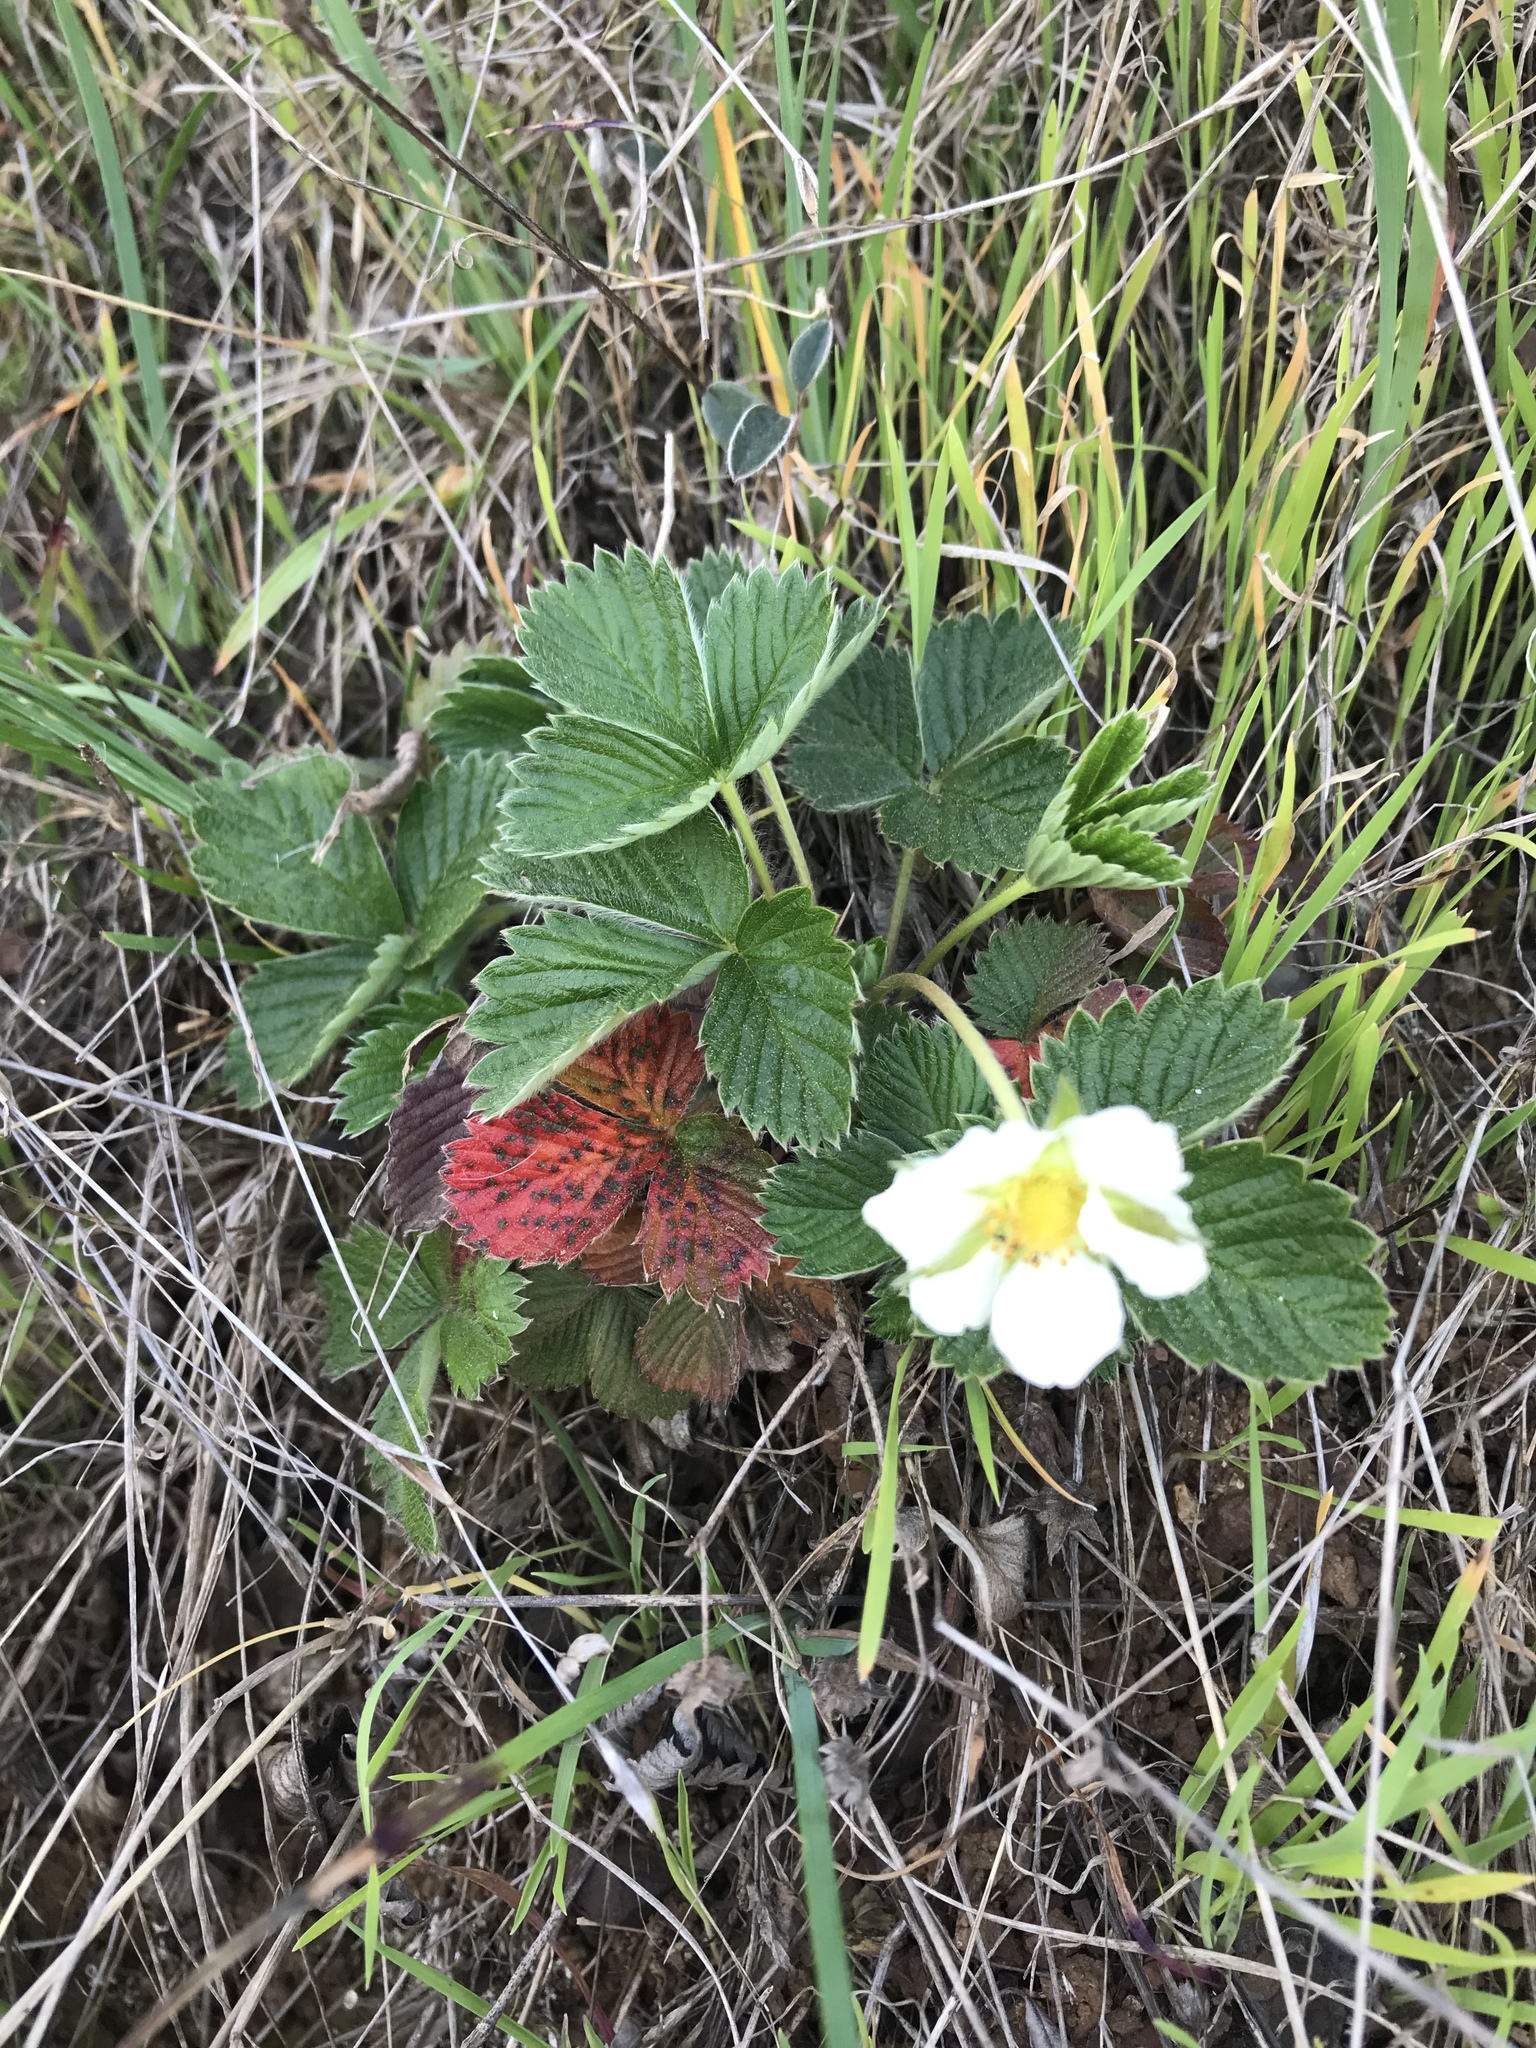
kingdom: Plantae
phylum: Tracheophyta
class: Magnoliopsida
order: Rosales
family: Rosaceae
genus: Fragaria
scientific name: Fragaria vesca
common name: Wild strawberry
